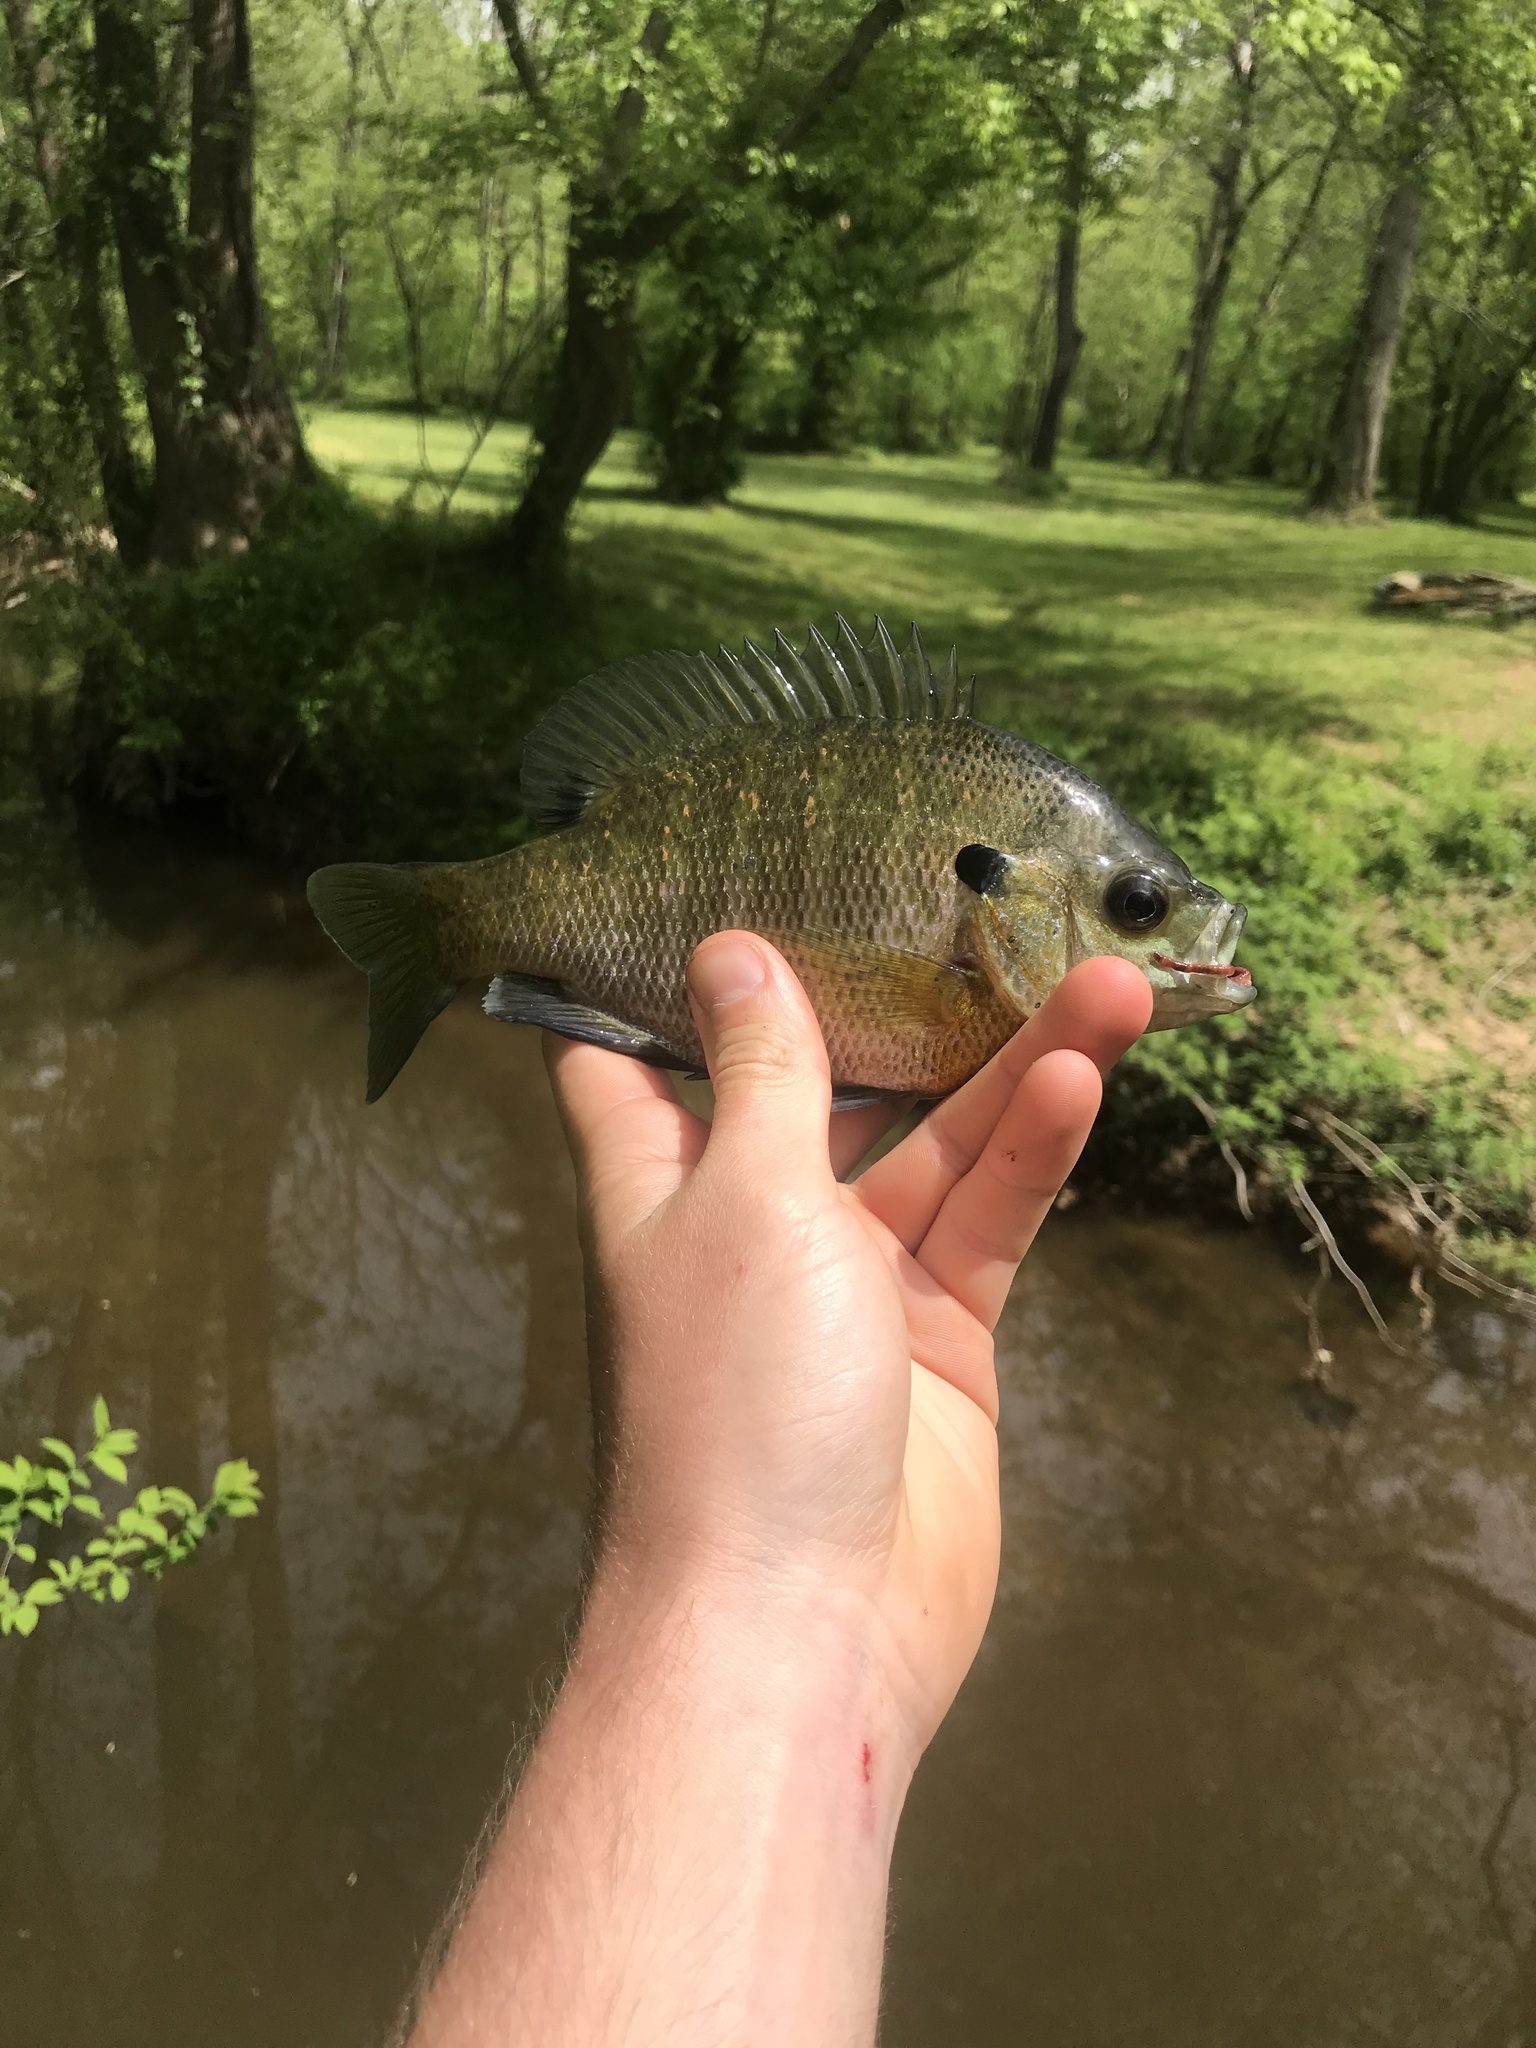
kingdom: Animalia
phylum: Chordata
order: Perciformes
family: Centrarchidae
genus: Lepomis
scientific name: Lepomis macrochirus
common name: Bluegill
